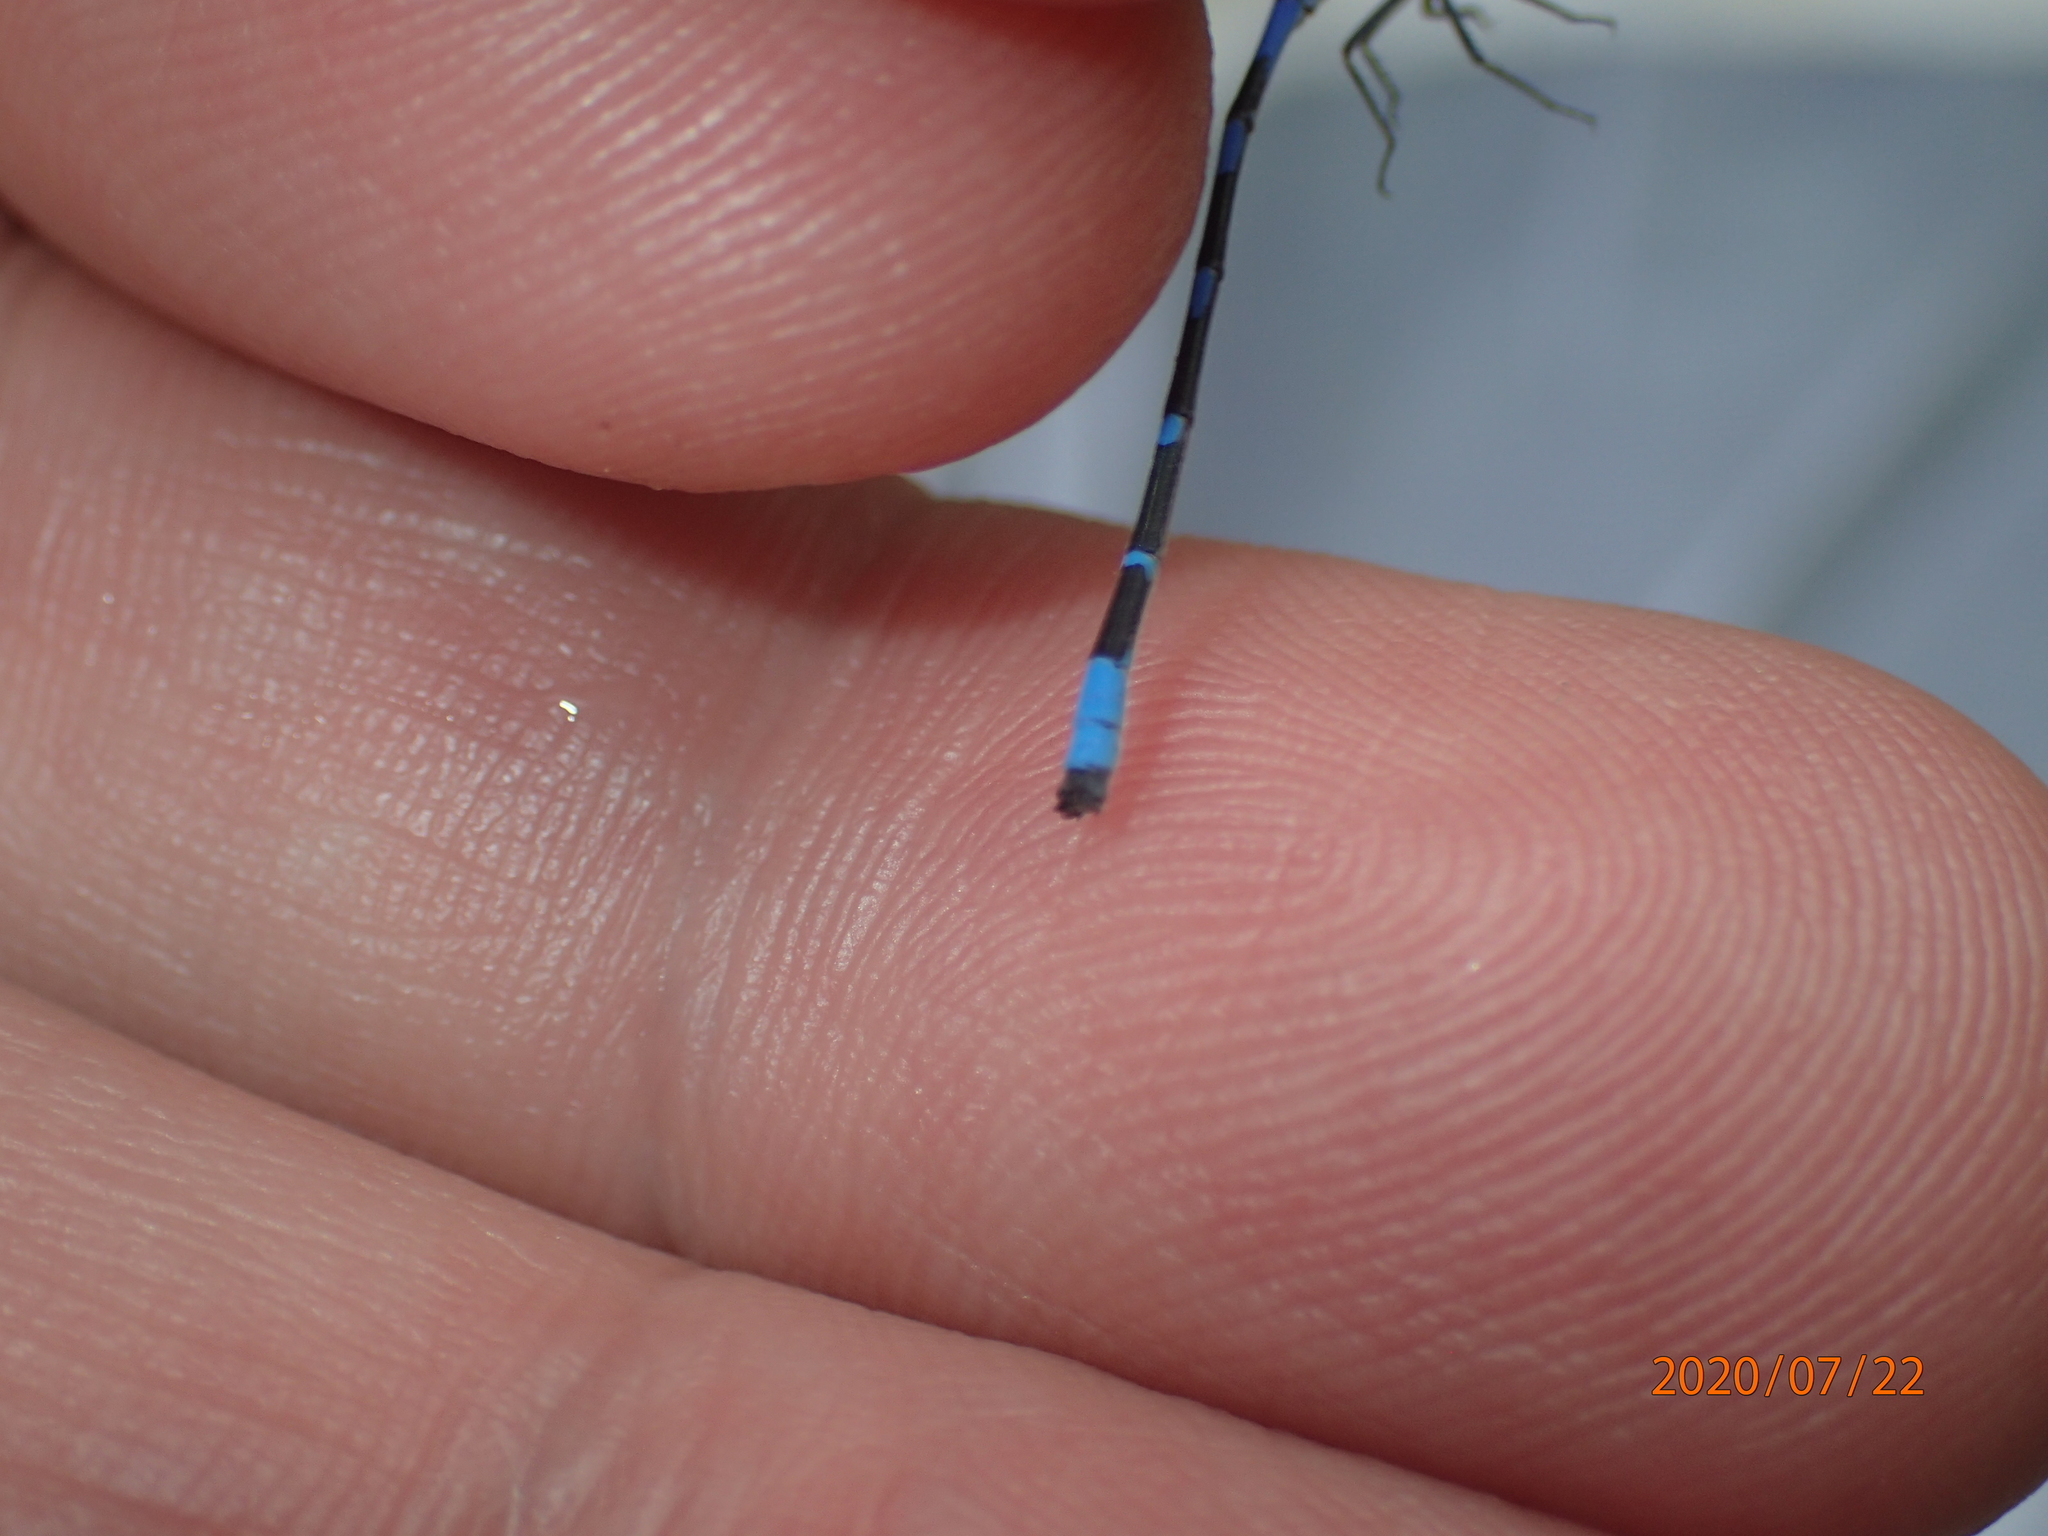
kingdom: Animalia
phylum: Arthropoda
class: Insecta
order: Odonata
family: Coenagrionidae
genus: Enallagma
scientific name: Enallagma minusculum
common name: Little bluet
